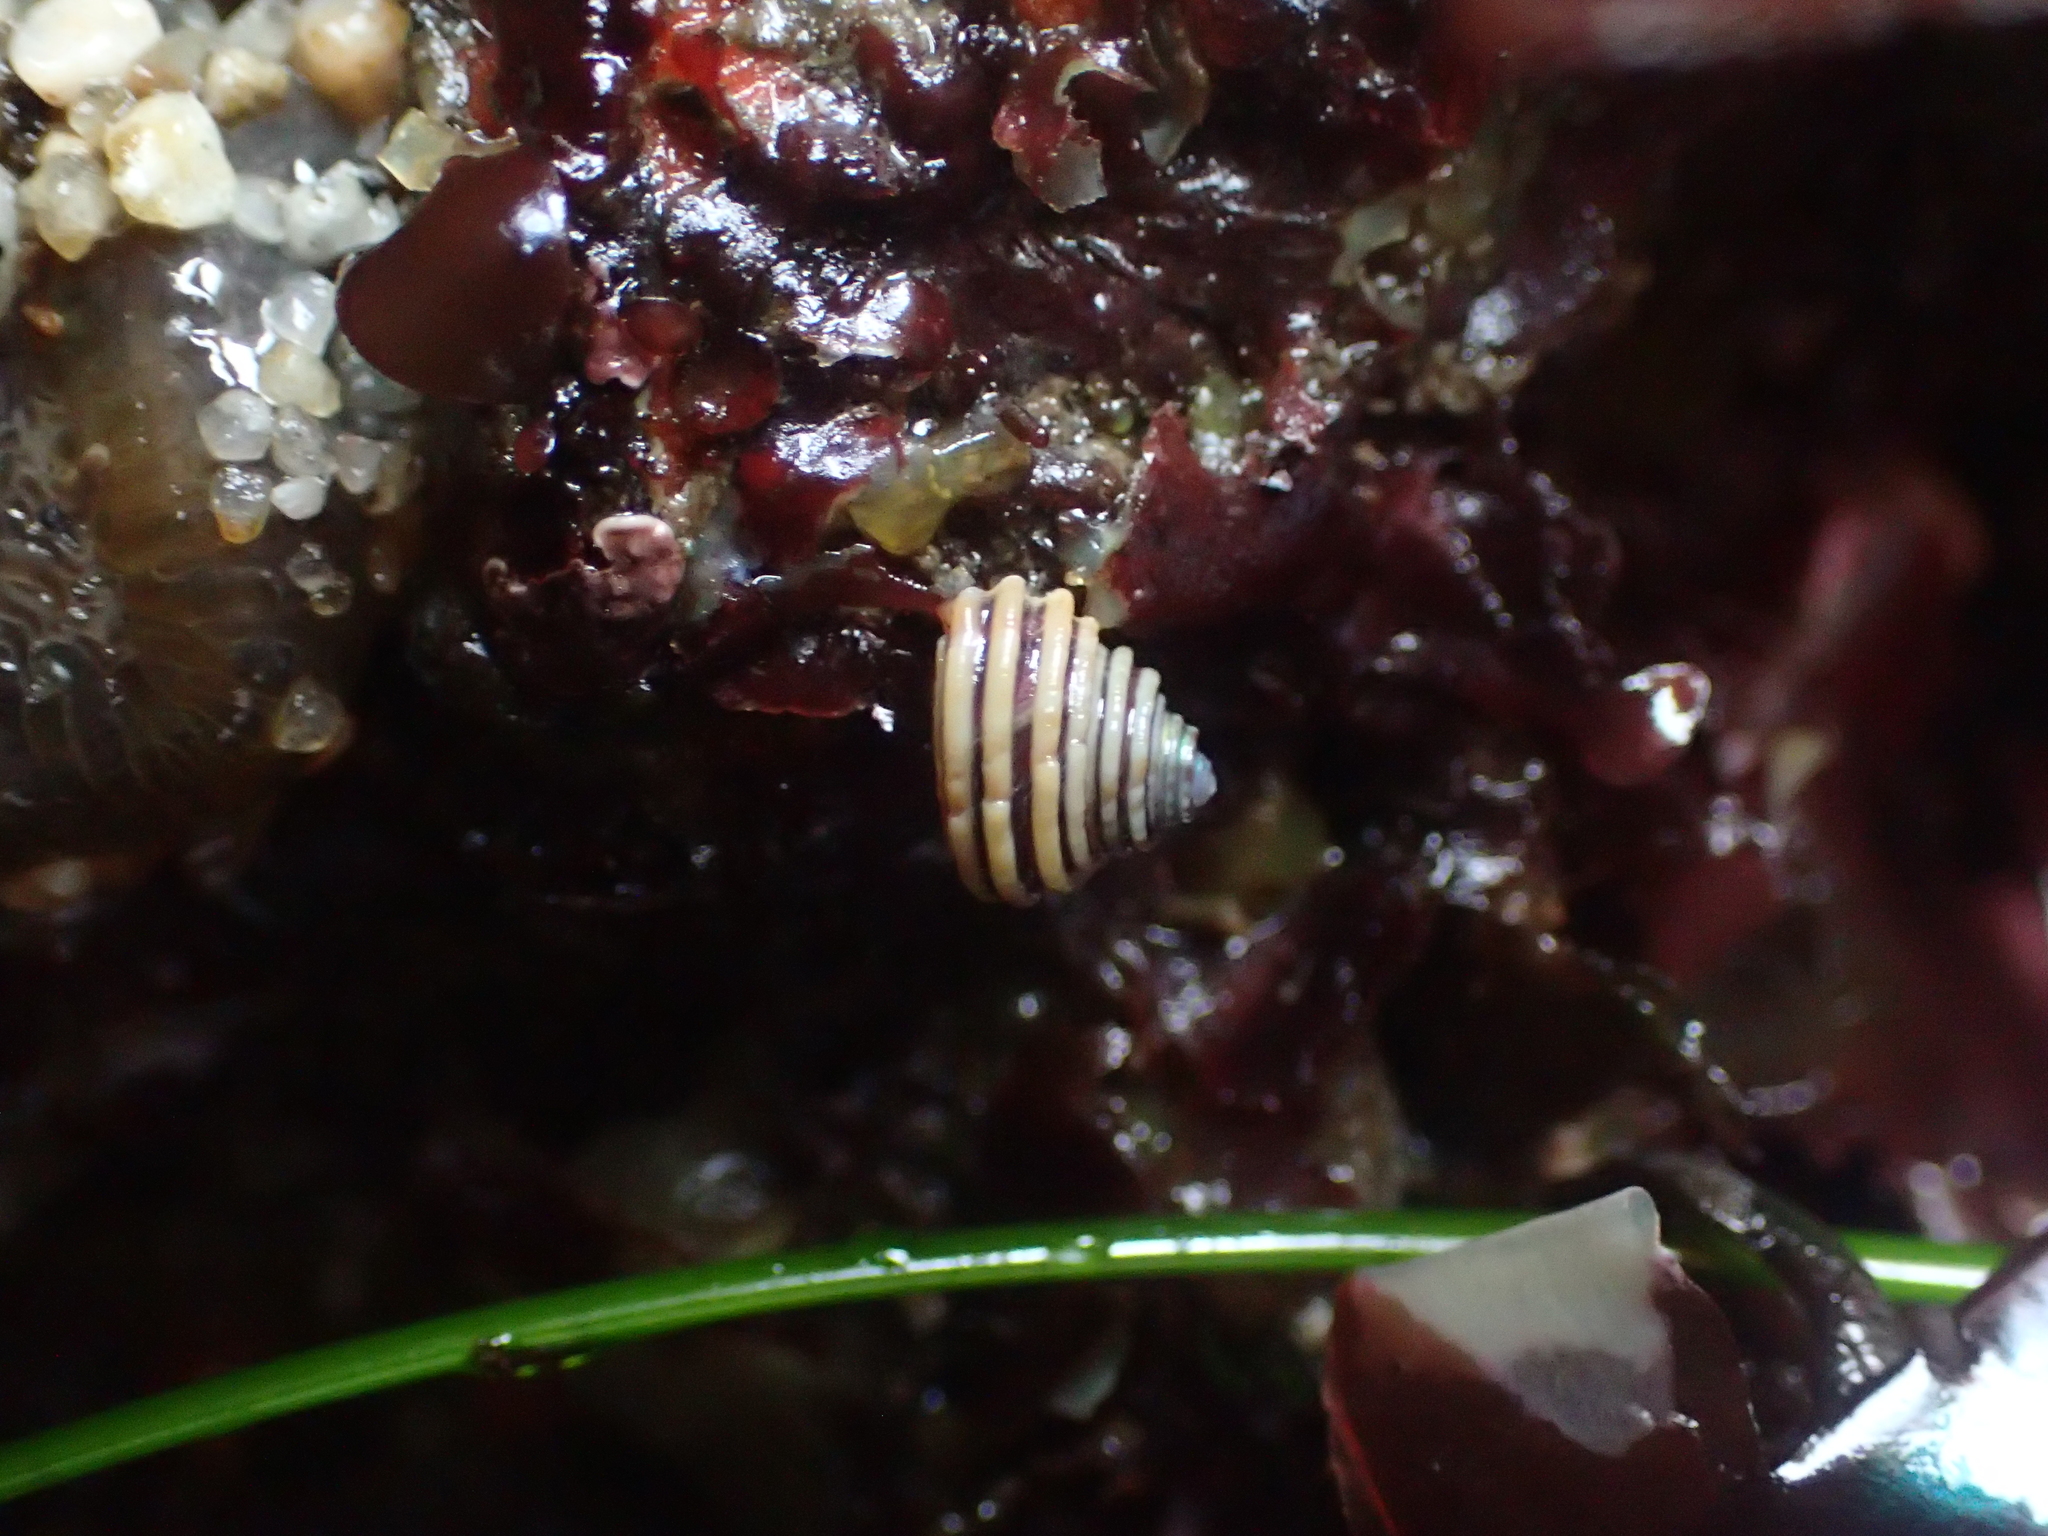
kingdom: Animalia
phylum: Mollusca
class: Gastropoda
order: Trochida
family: Calliostomatidae
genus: Calliostoma
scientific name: Calliostoma canaliculatum
